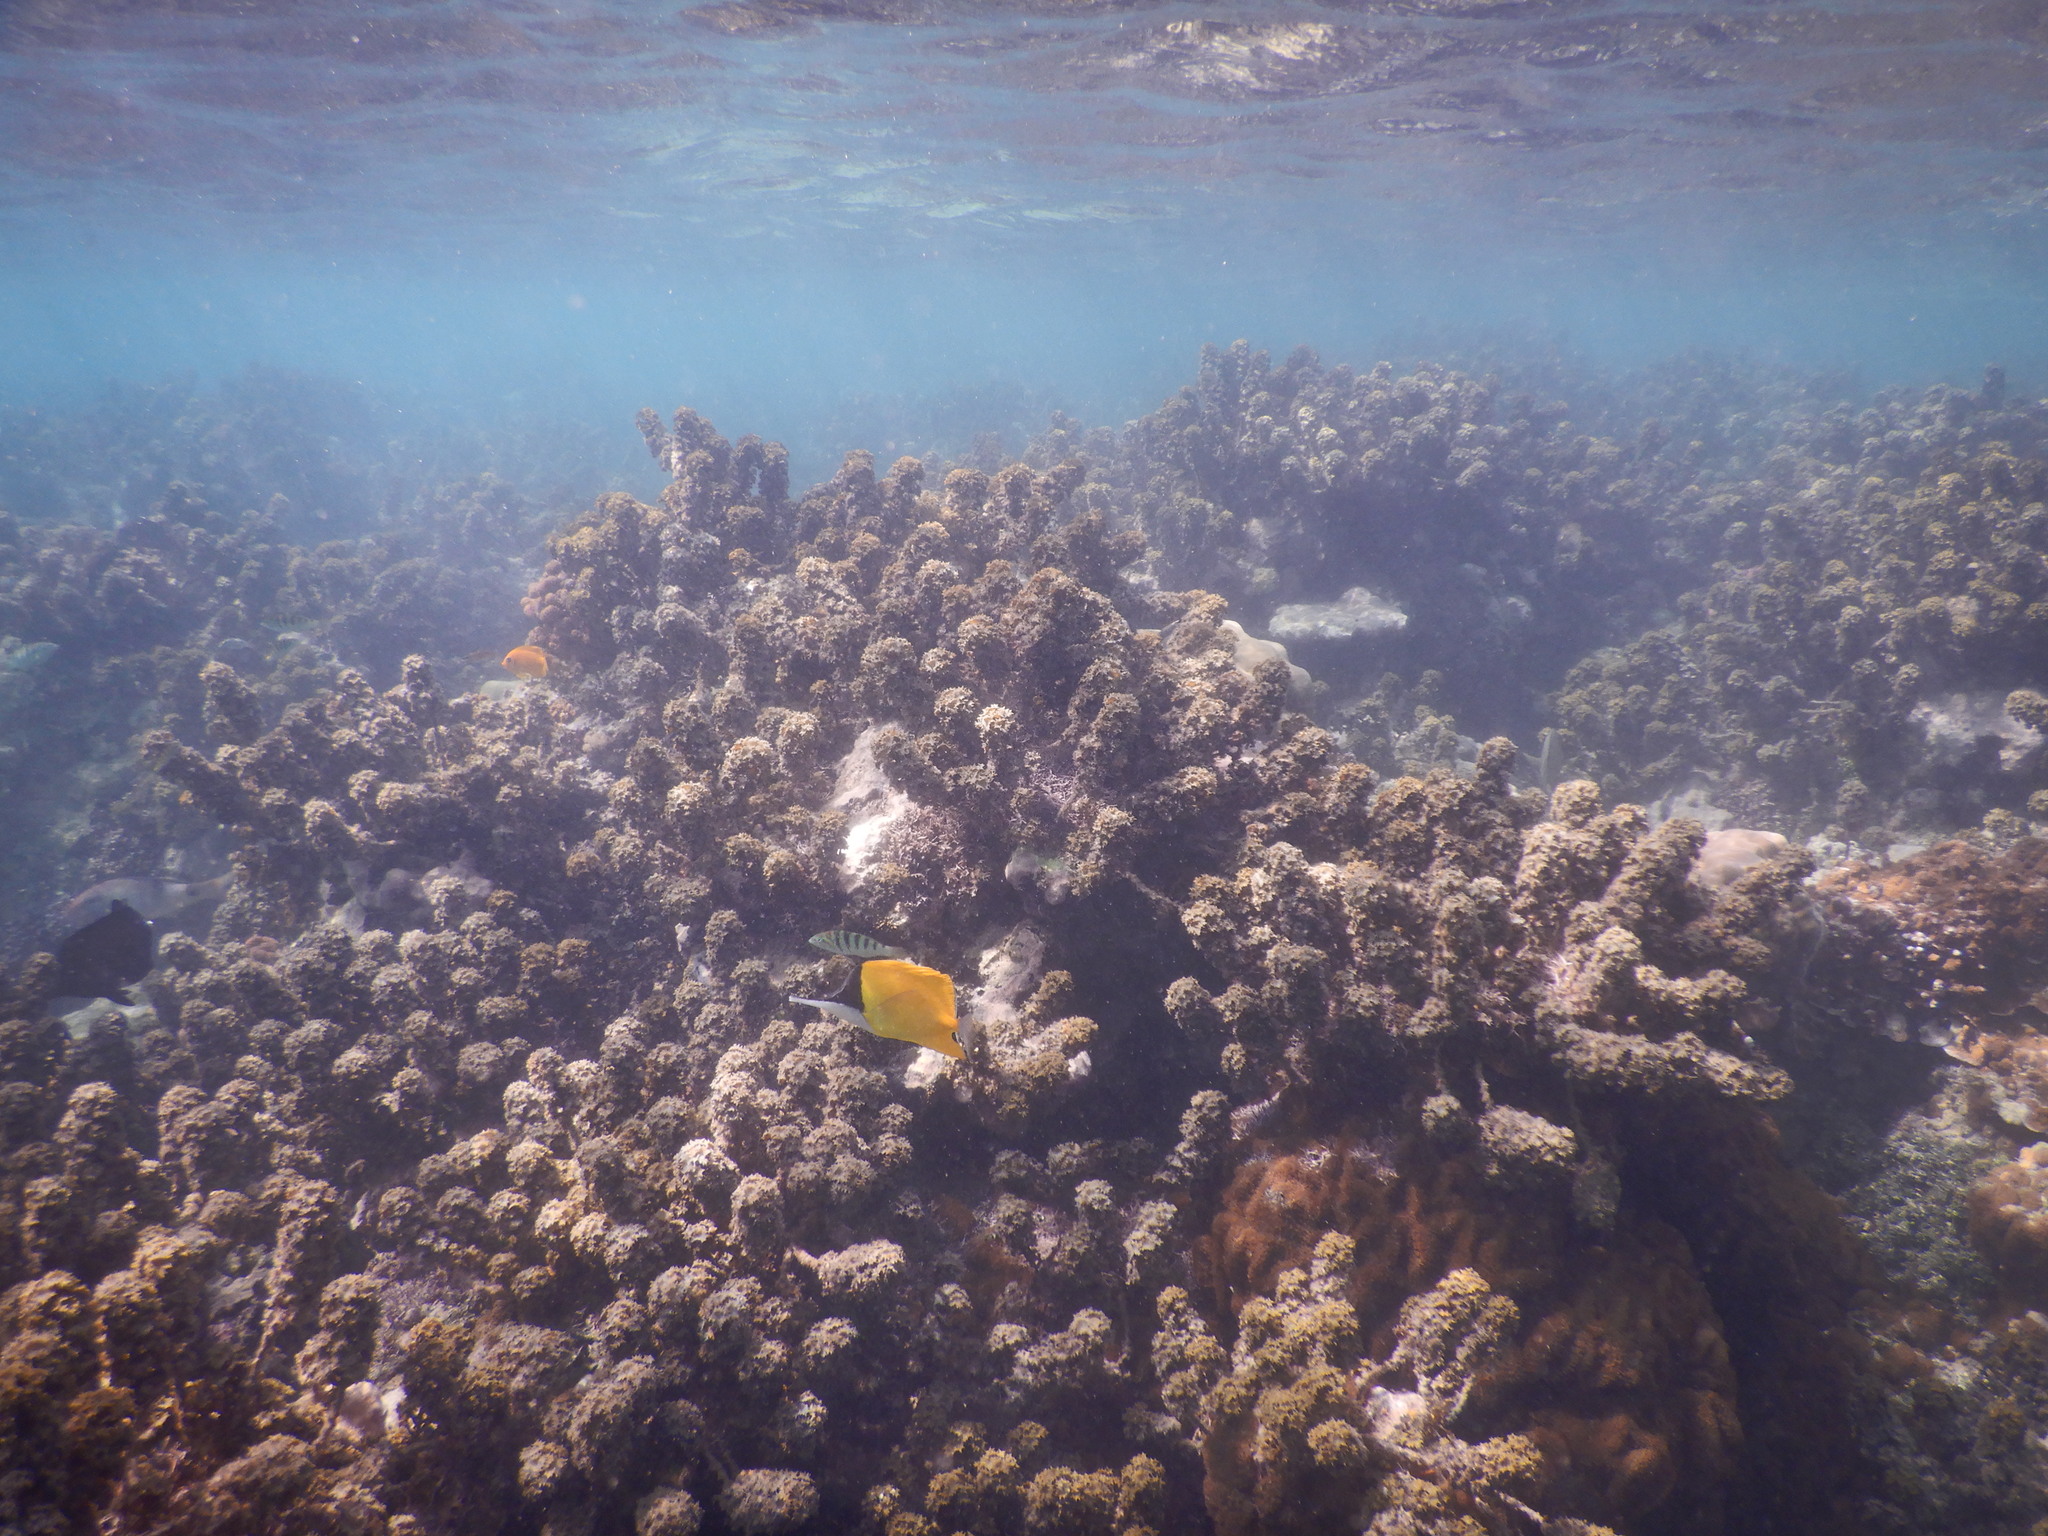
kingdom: Animalia
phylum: Chordata
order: Perciformes
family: Chaetodontidae
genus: Forcipiger
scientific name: Forcipiger flavissimus
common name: Forcepsfish
